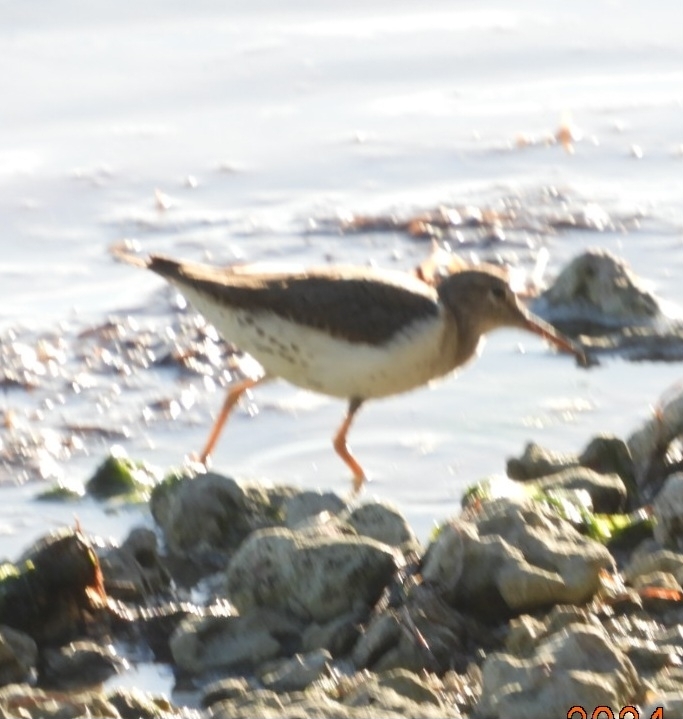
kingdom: Animalia
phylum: Chordata
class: Aves
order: Charadriiformes
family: Scolopacidae
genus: Actitis
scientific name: Actitis macularius
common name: Spotted sandpiper
